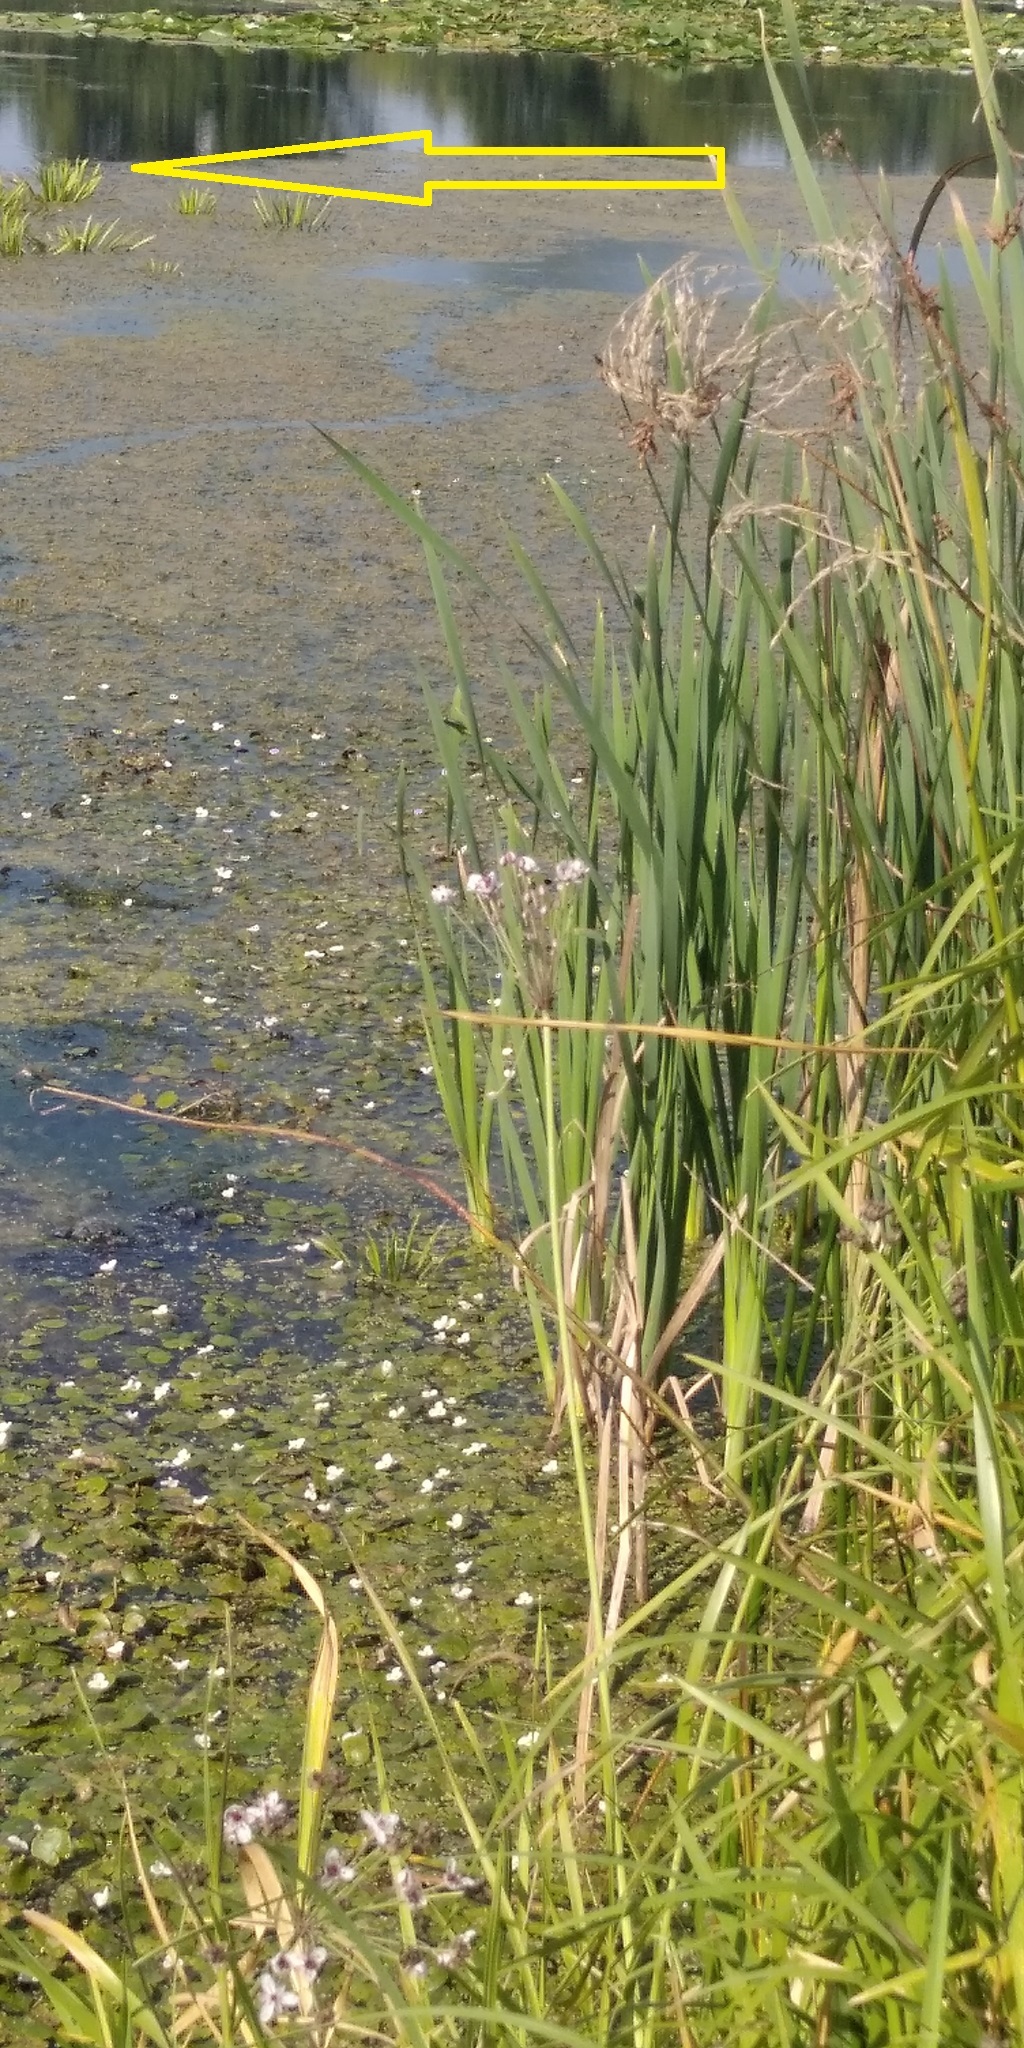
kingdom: Plantae
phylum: Tracheophyta
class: Liliopsida
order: Alismatales
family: Hydrocharitaceae
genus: Stratiotes
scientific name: Stratiotes aloides
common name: Water-soldier
